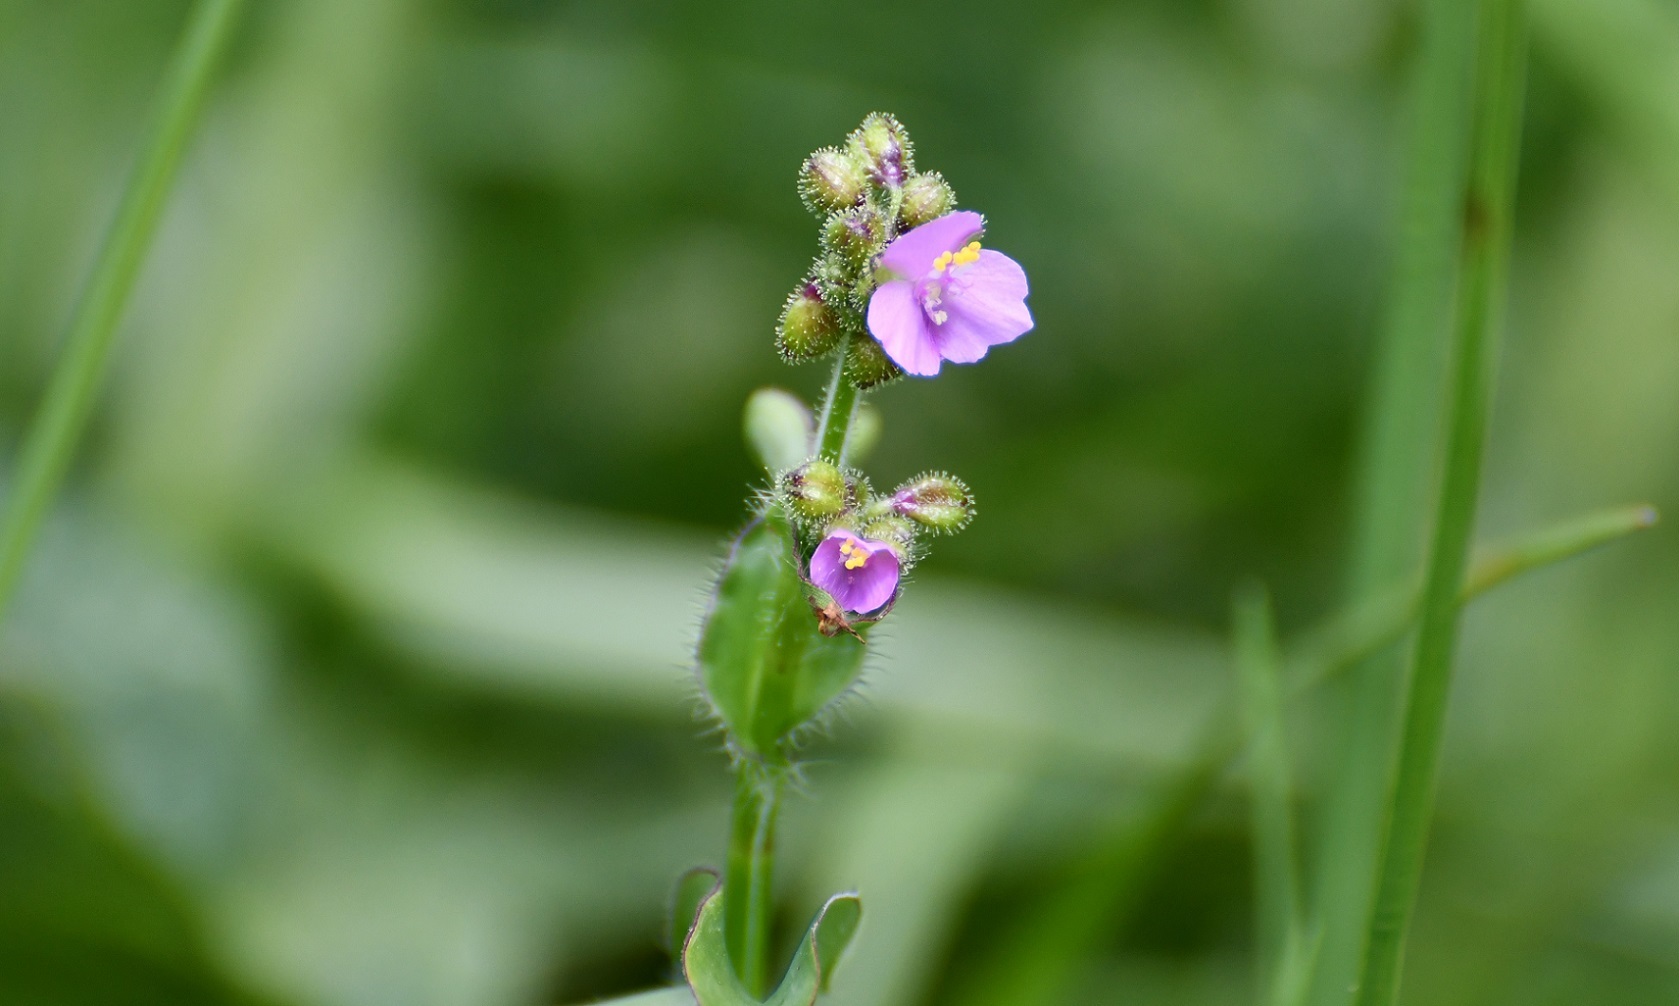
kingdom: Plantae
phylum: Tracheophyta
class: Liliopsida
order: Commelinales
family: Commelinaceae
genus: Callisia
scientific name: Callisia purpurascens
